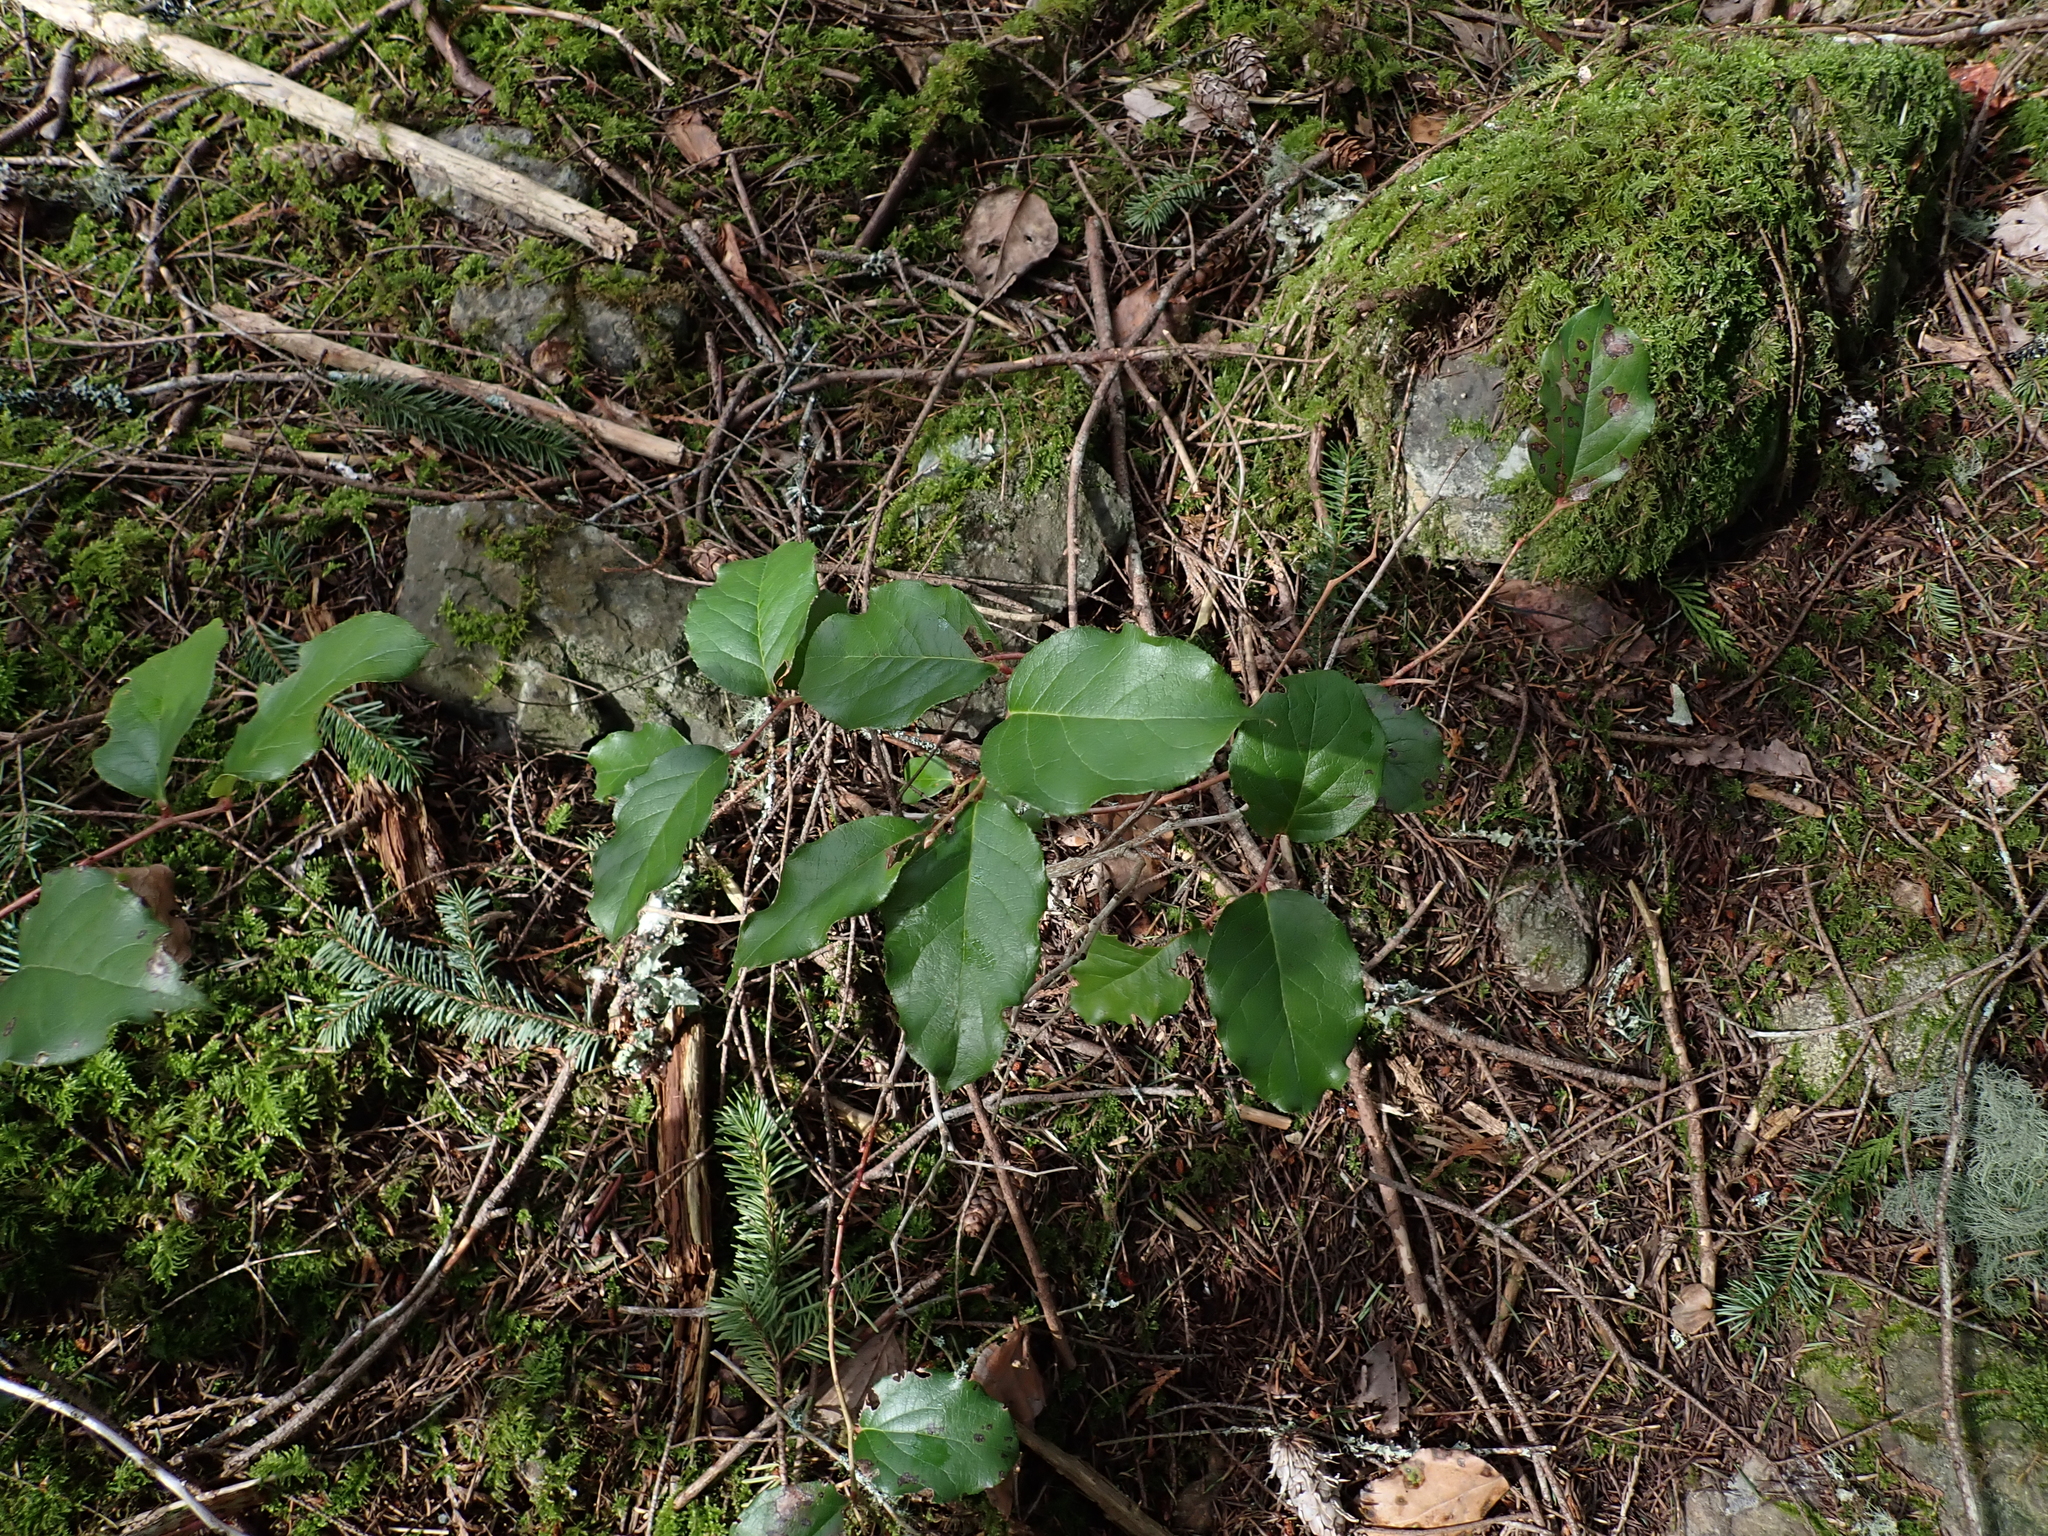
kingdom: Plantae
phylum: Tracheophyta
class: Magnoliopsida
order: Ericales
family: Ericaceae
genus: Gaultheria
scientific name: Gaultheria shallon
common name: Shallon
